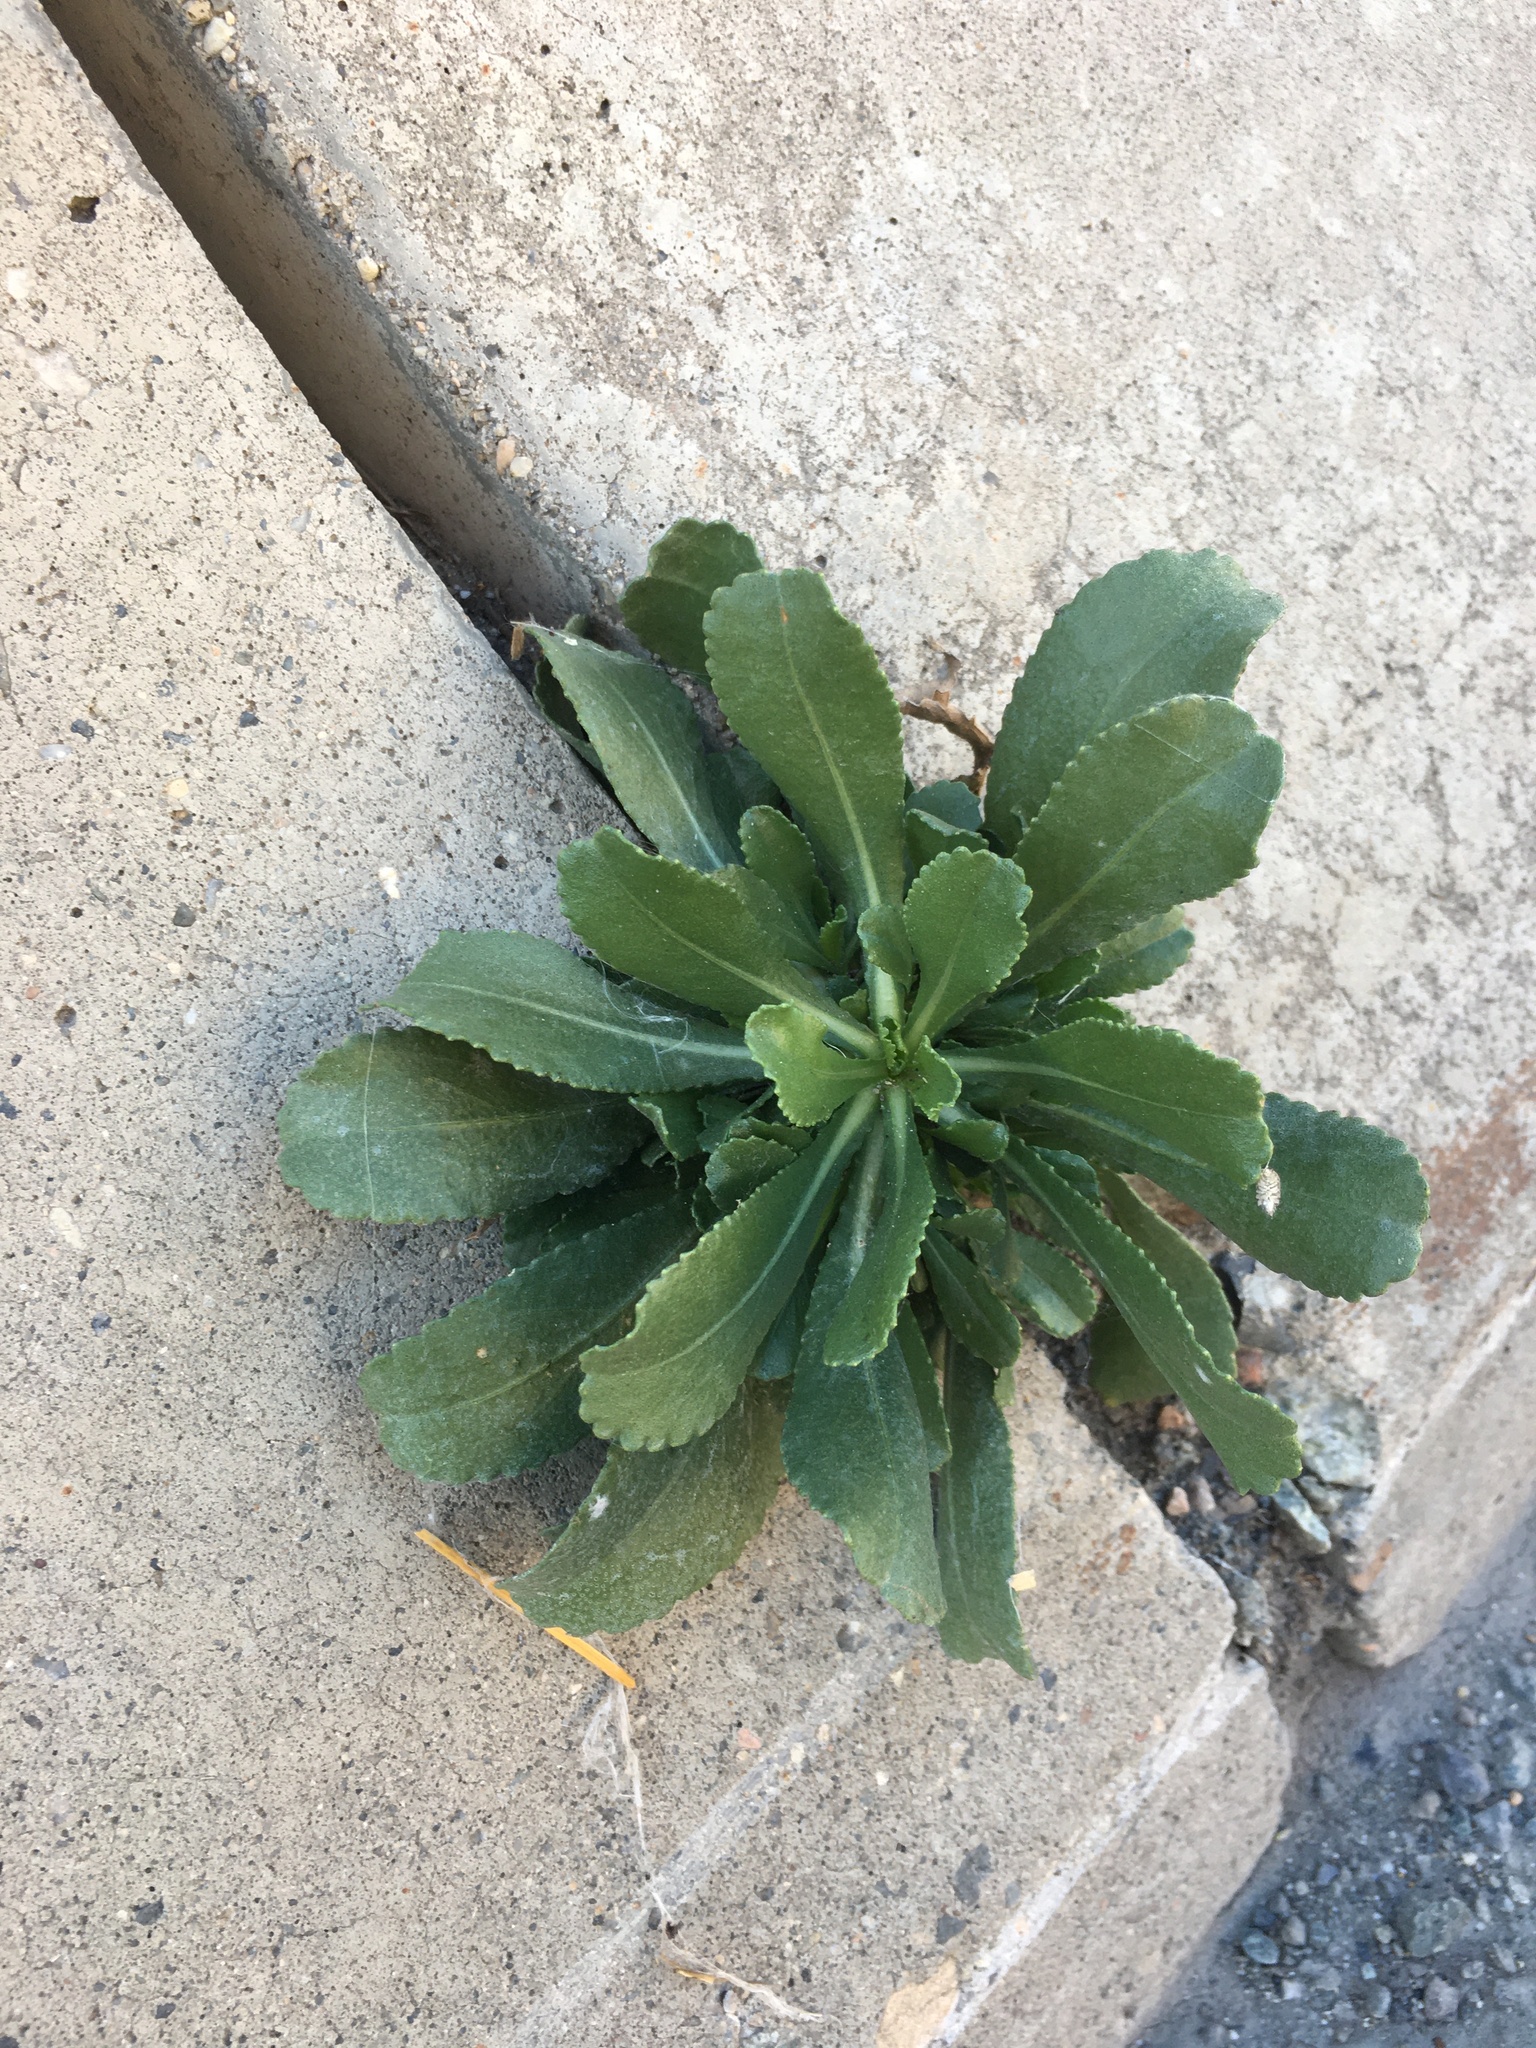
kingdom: Plantae
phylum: Tracheophyta
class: Magnoliopsida
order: Asterales
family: Asteraceae
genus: Grindelia
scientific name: Grindelia squarrosa
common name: Curly-cup gumweed
